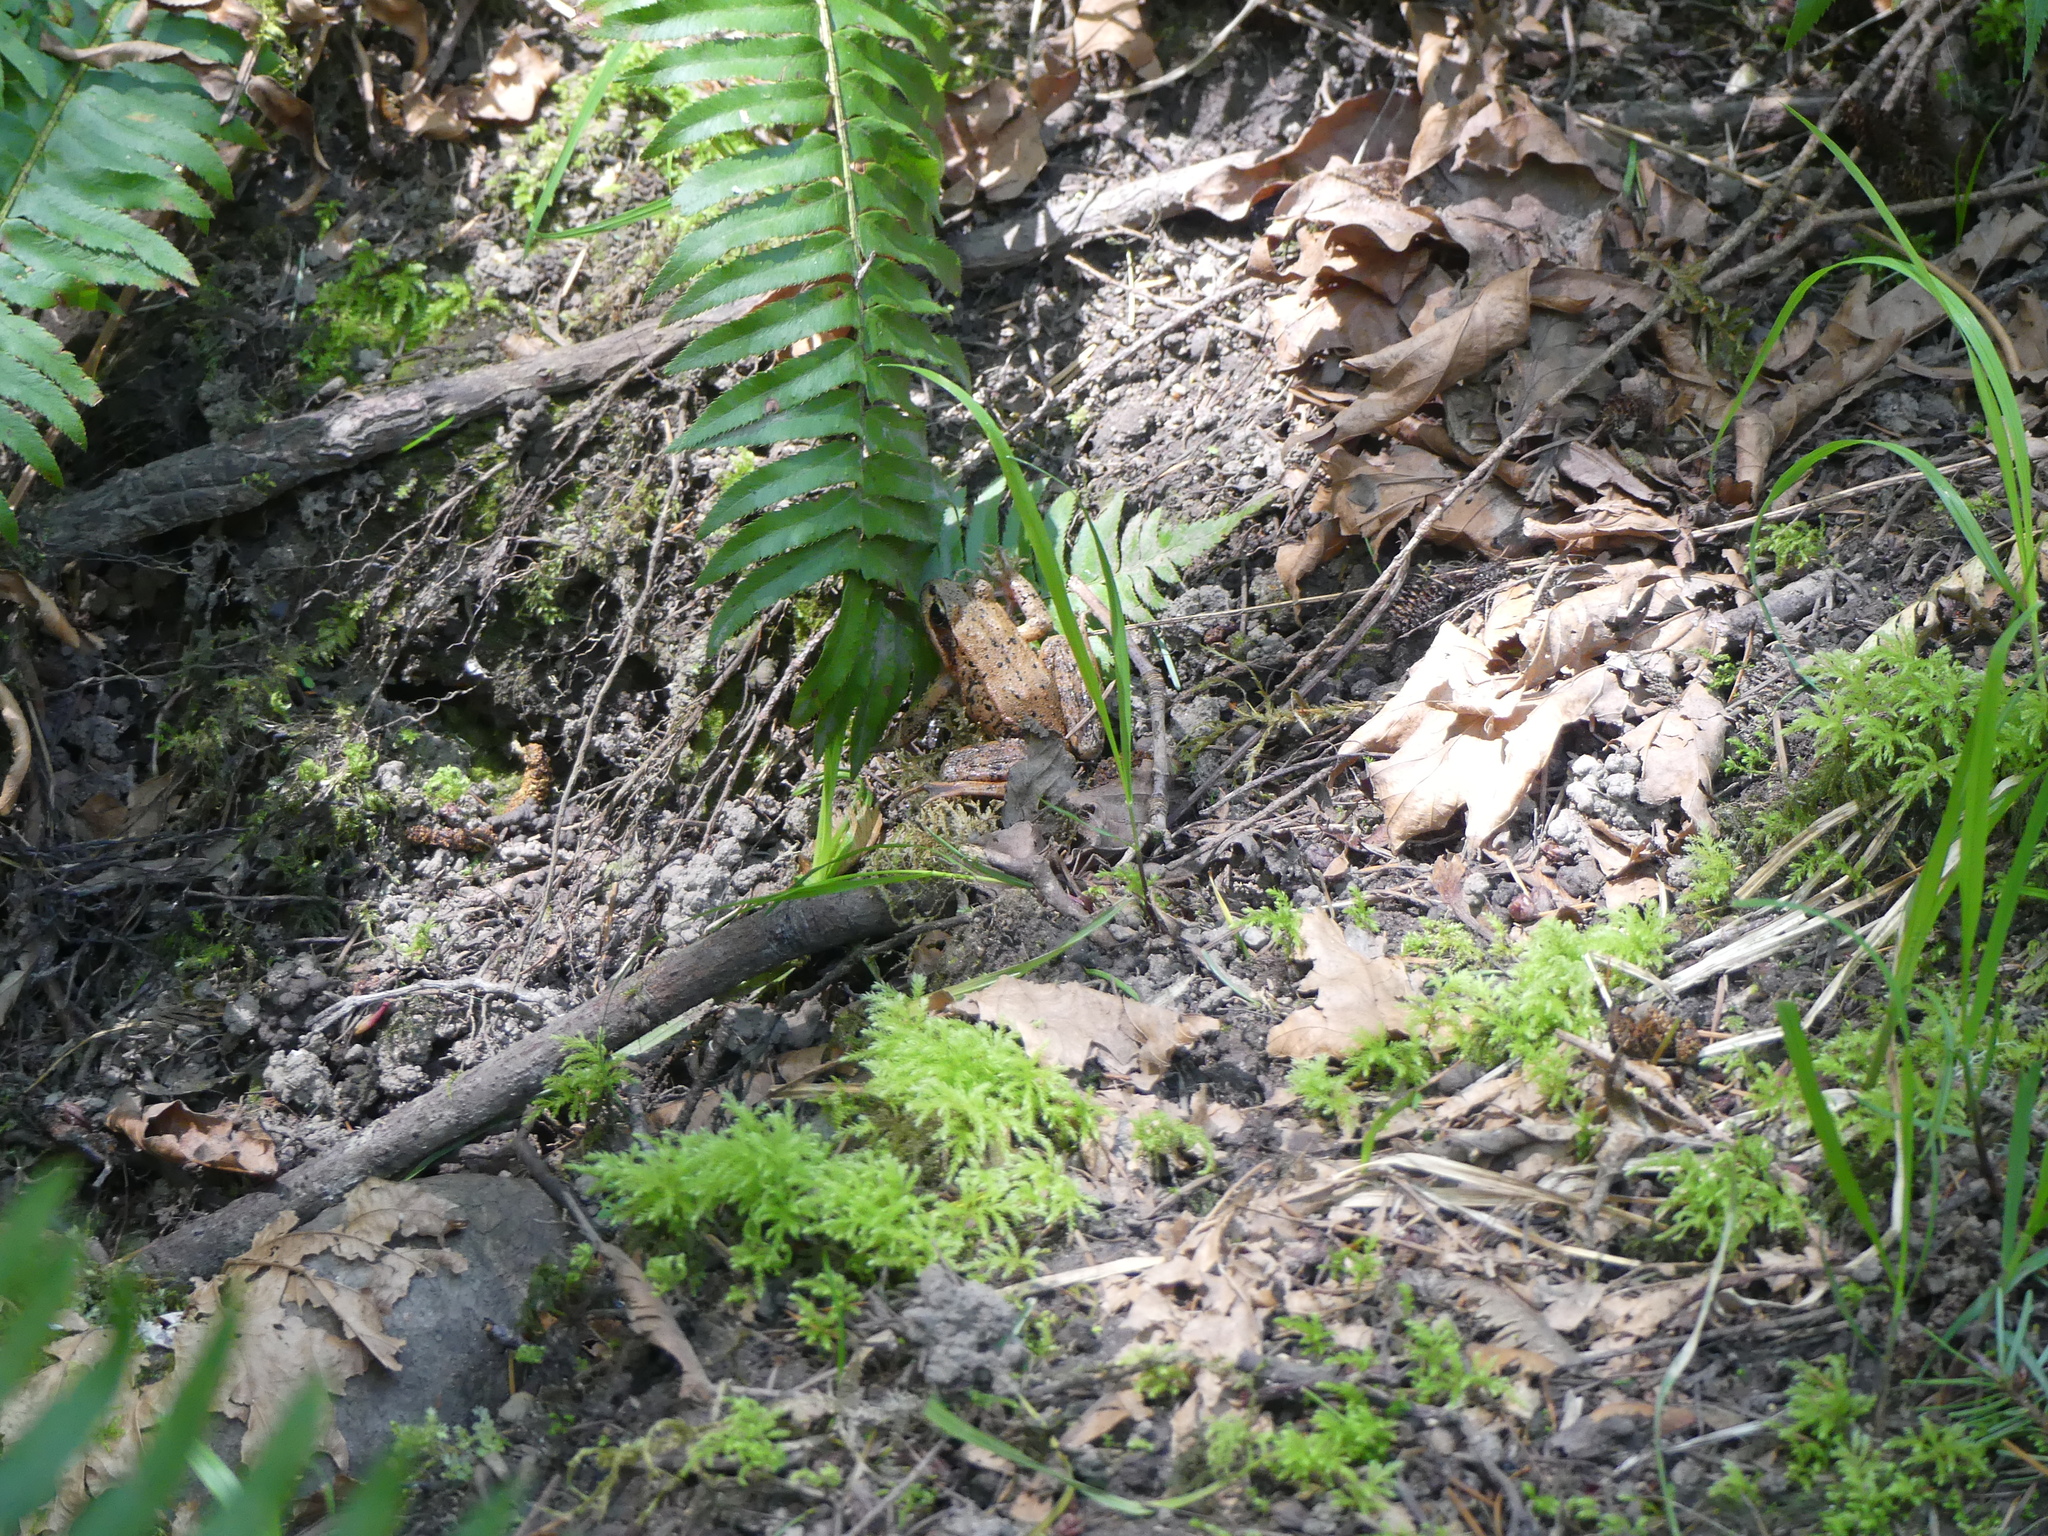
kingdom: Animalia
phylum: Chordata
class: Amphibia
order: Anura
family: Ranidae
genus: Rana
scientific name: Rana aurora
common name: Red-legged frog
